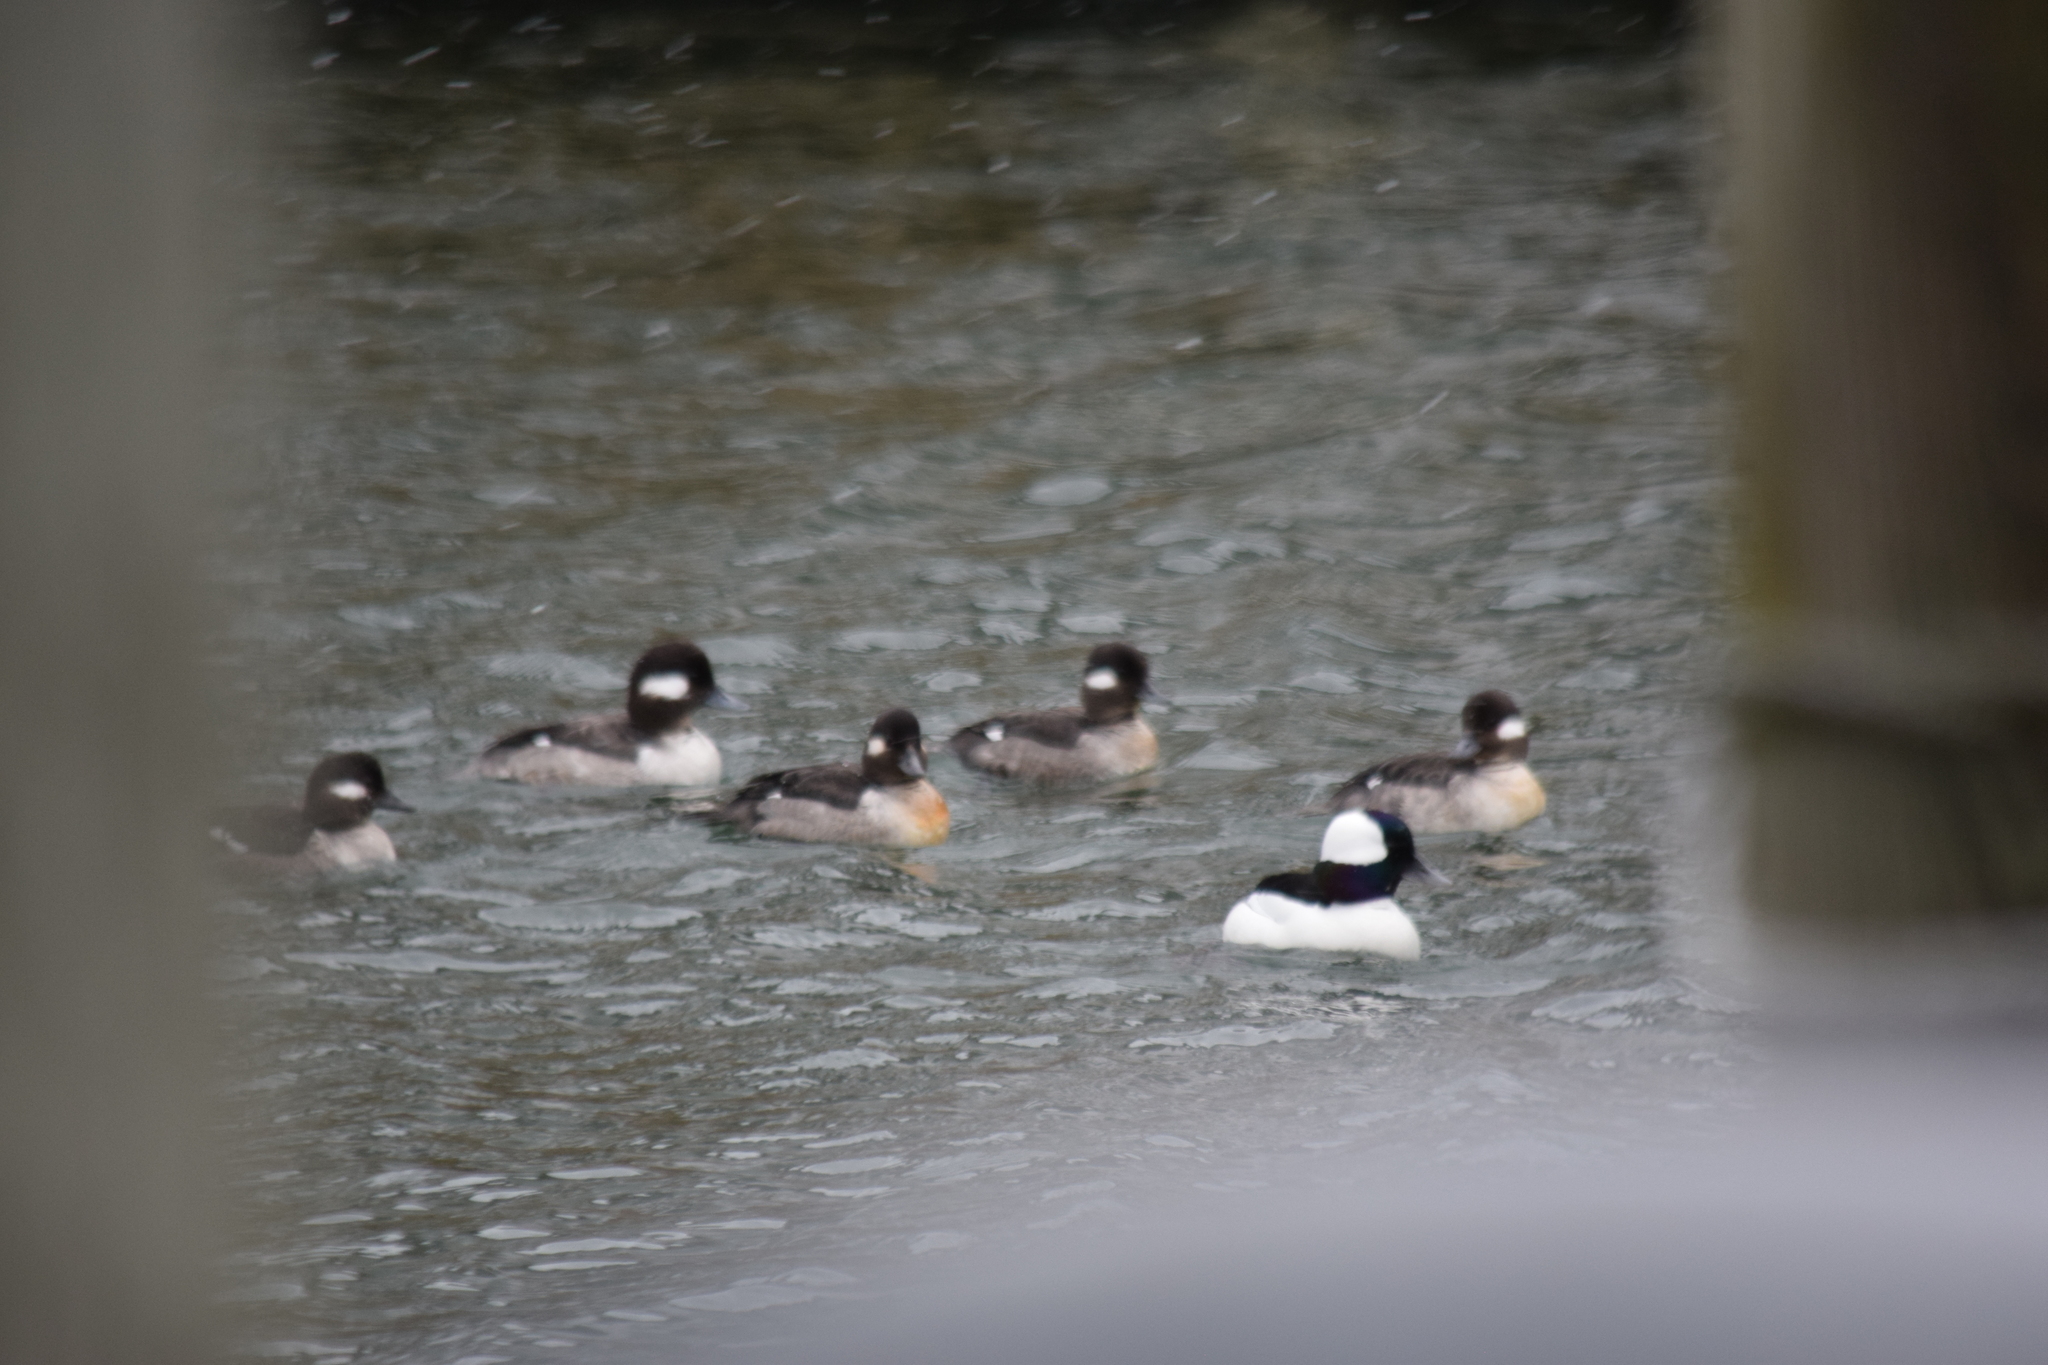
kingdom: Animalia
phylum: Chordata
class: Aves
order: Anseriformes
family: Anatidae
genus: Bucephala
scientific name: Bucephala albeola
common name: Bufflehead
